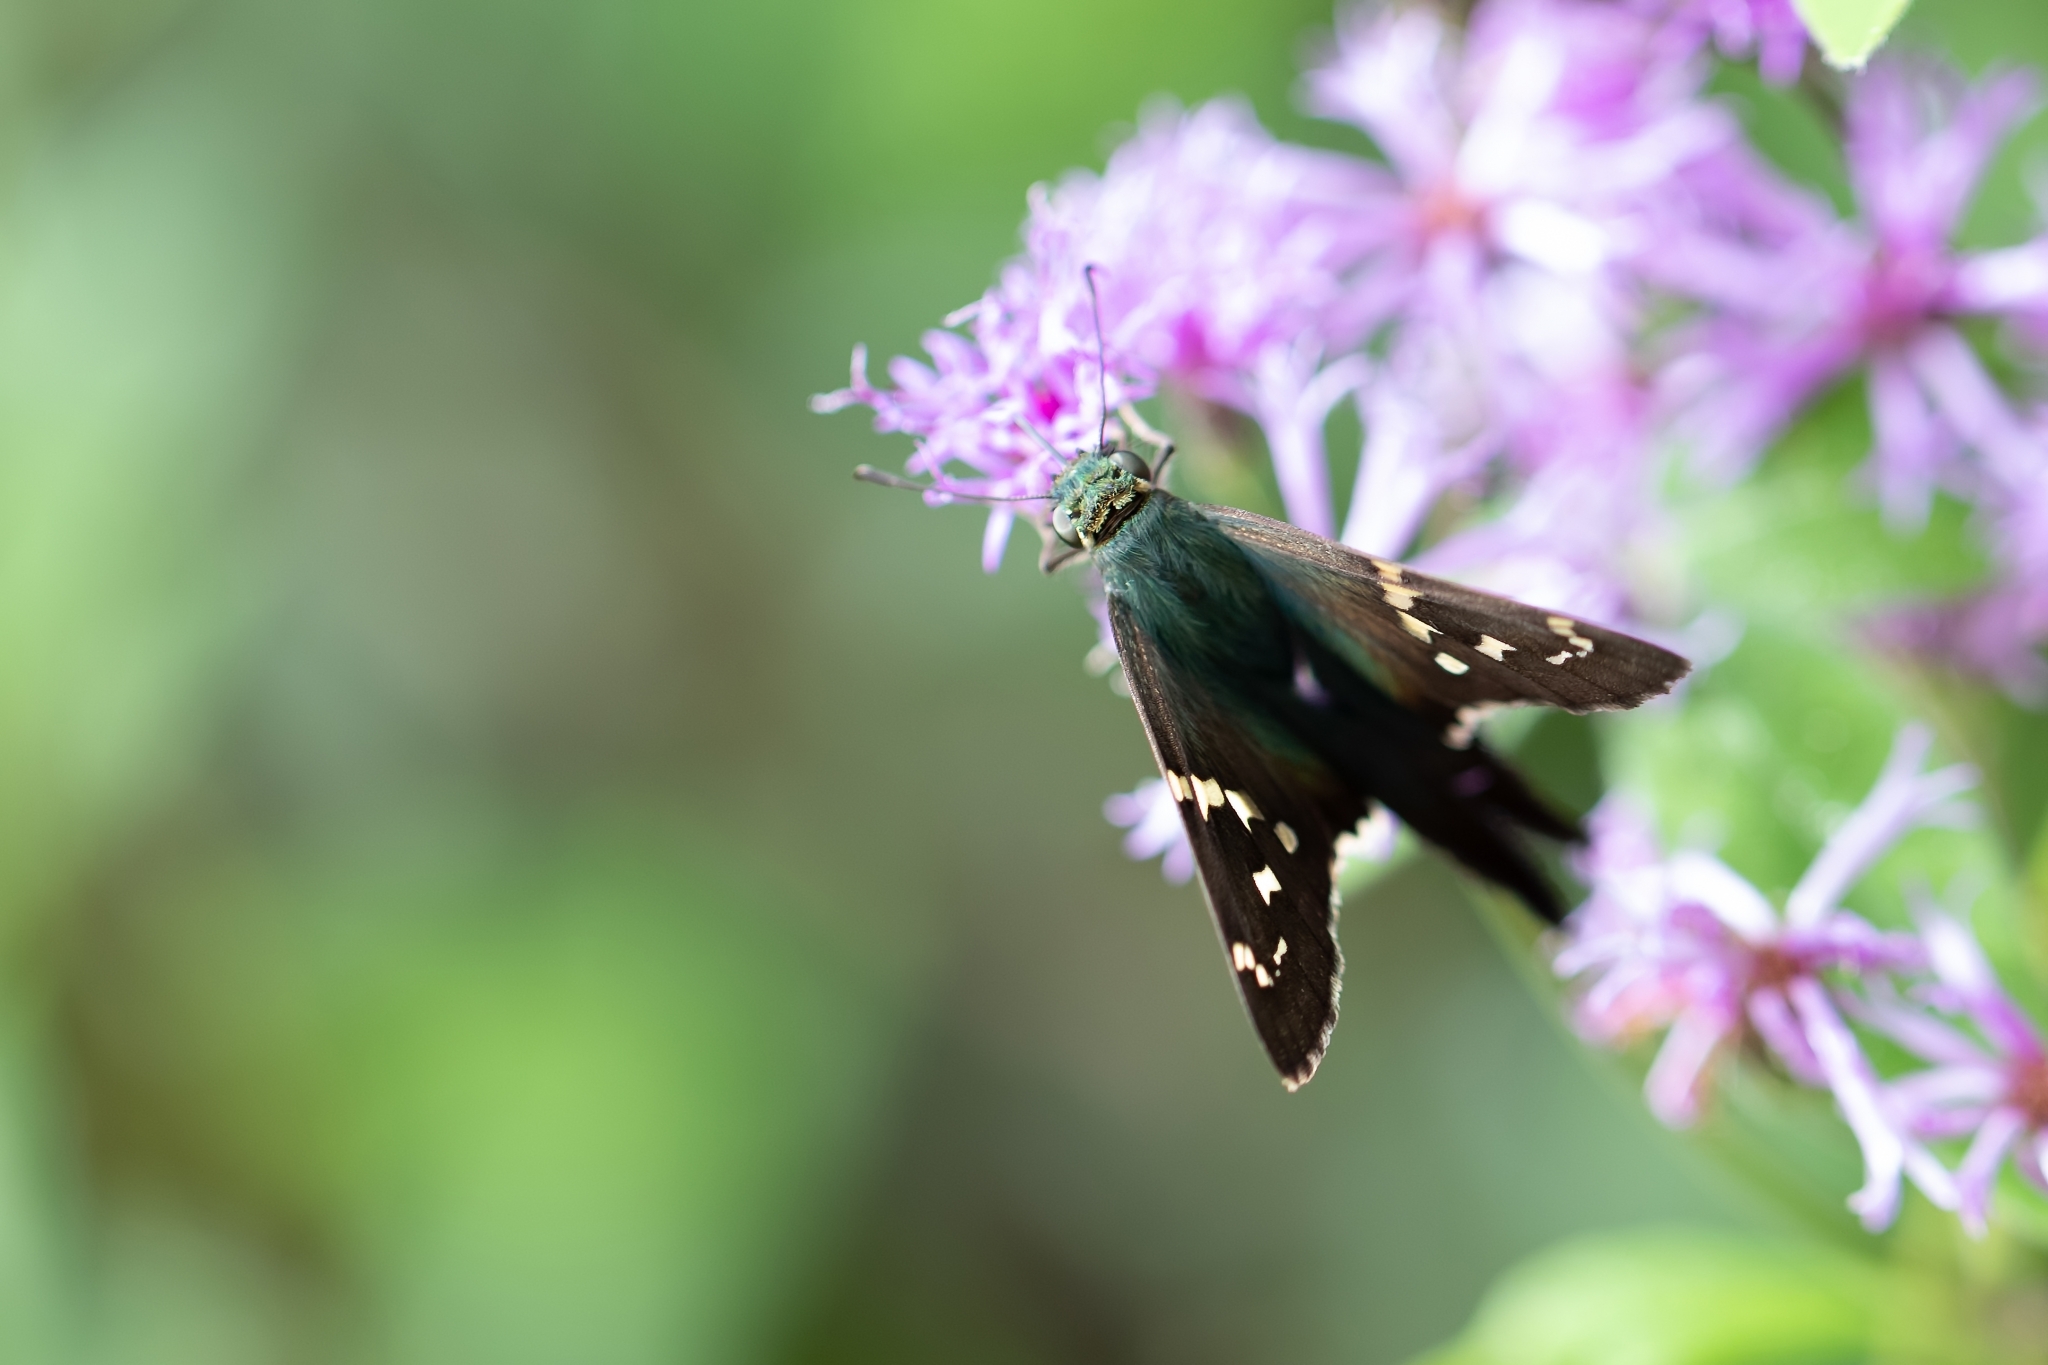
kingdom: Animalia
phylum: Arthropoda
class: Insecta
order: Lepidoptera
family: Hesperiidae
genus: Urbanus
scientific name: Urbanus proteus
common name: Long-tailed skipper
